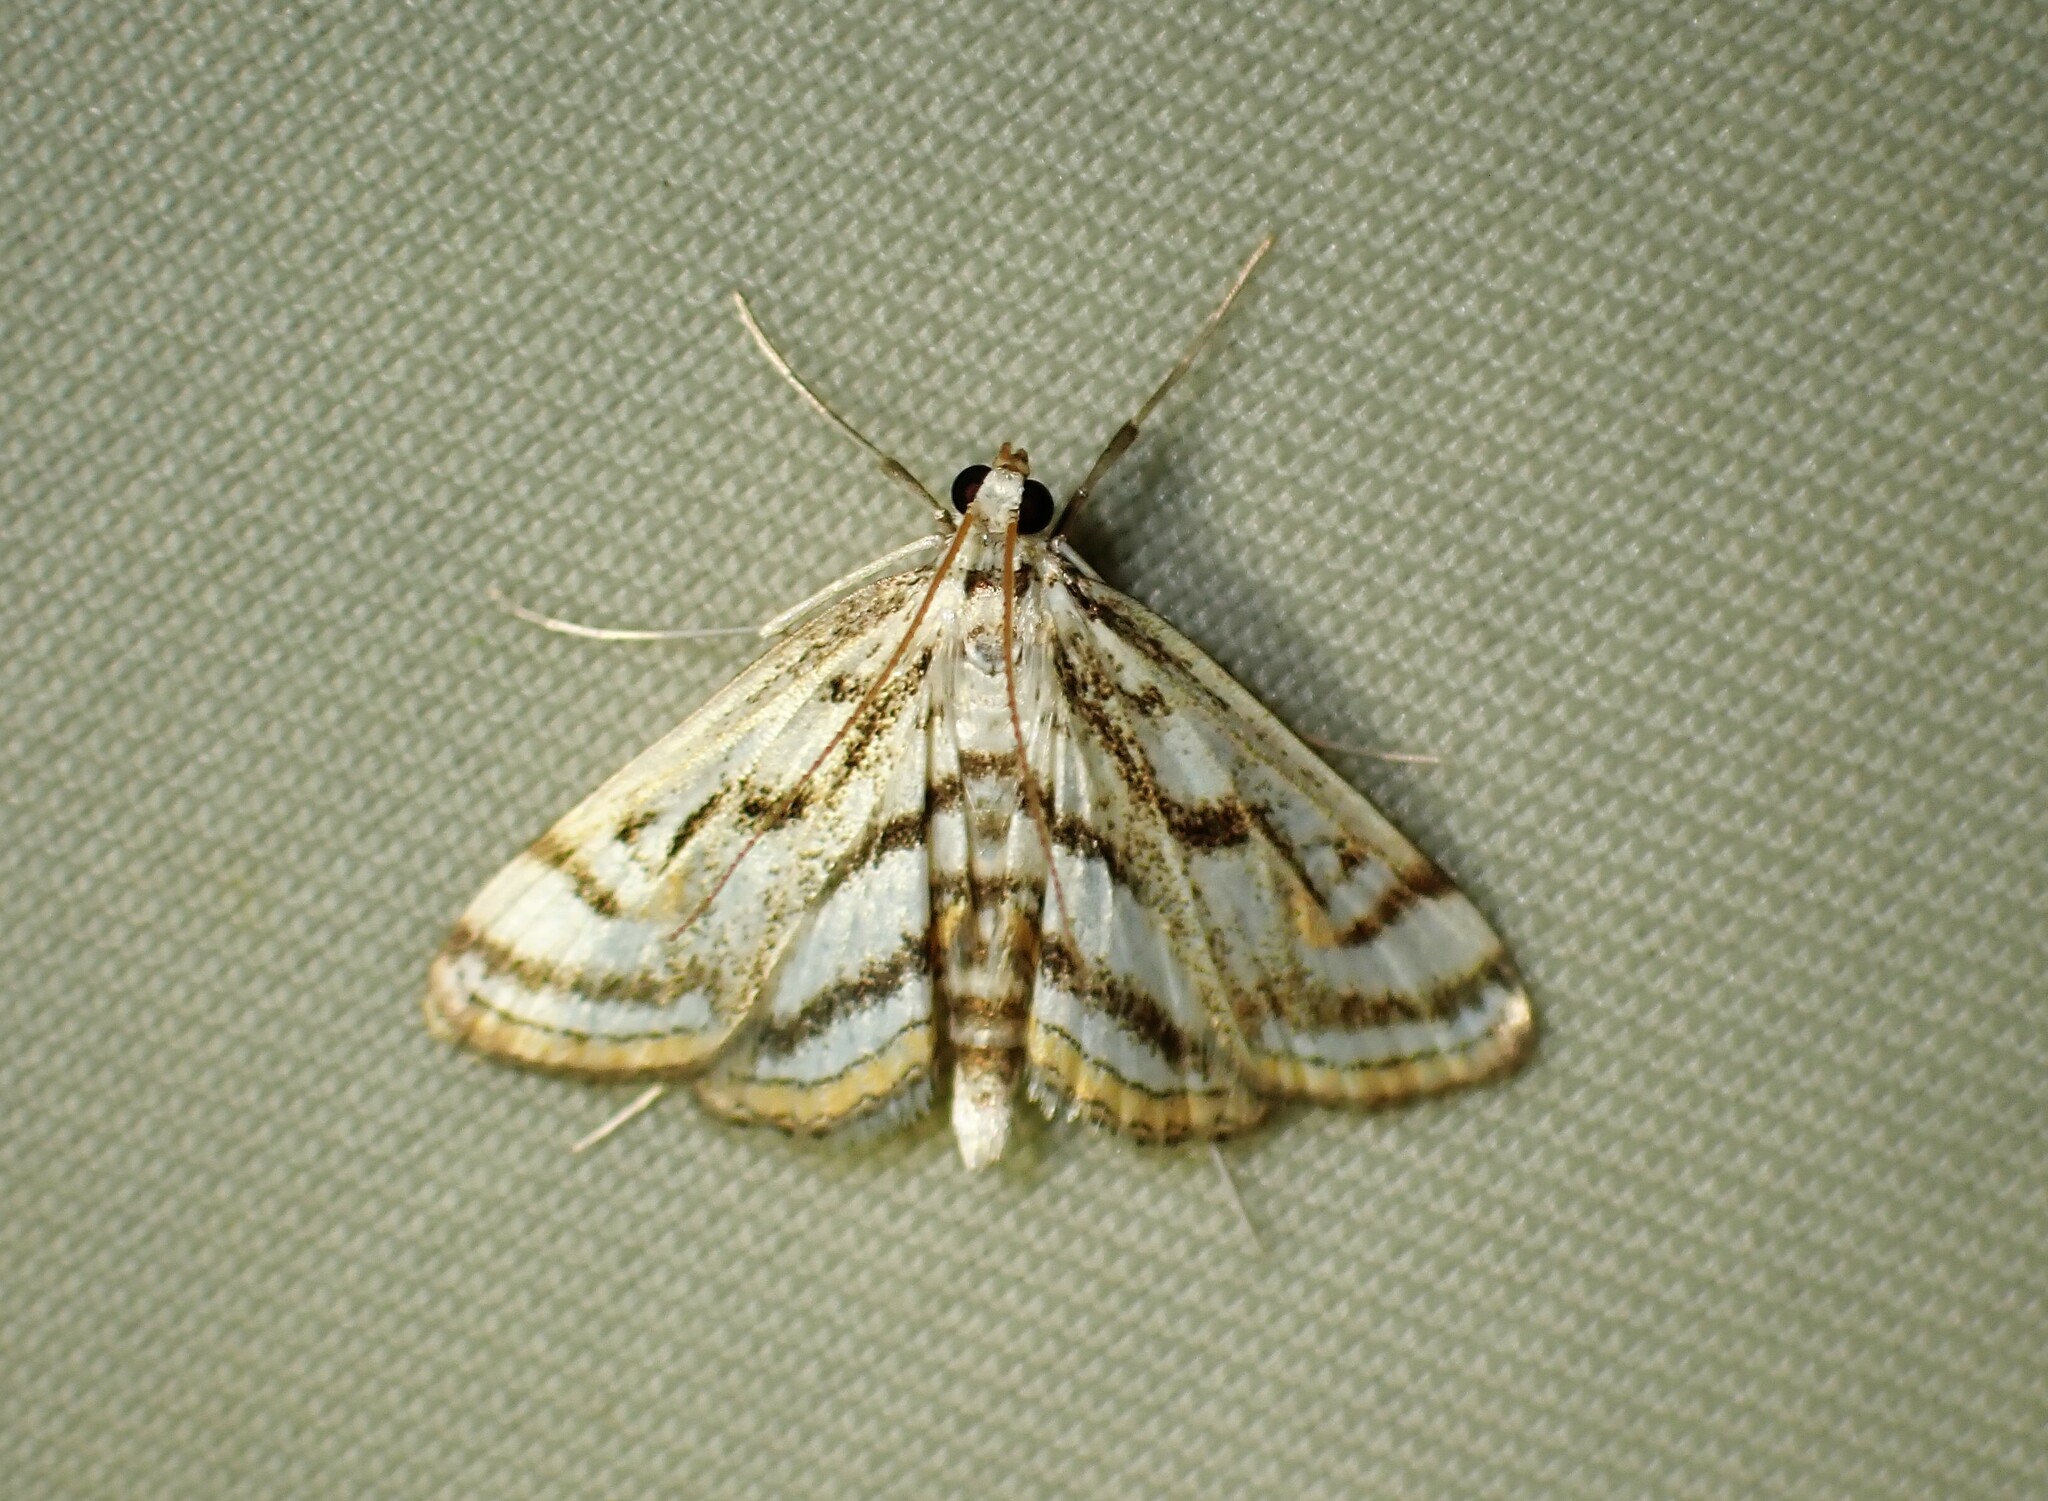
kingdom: Animalia
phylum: Arthropoda
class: Insecta
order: Lepidoptera
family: Crambidae
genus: Parapoynx
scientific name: Parapoynx badiusalis
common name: Chestnut-marked pondweed moth
